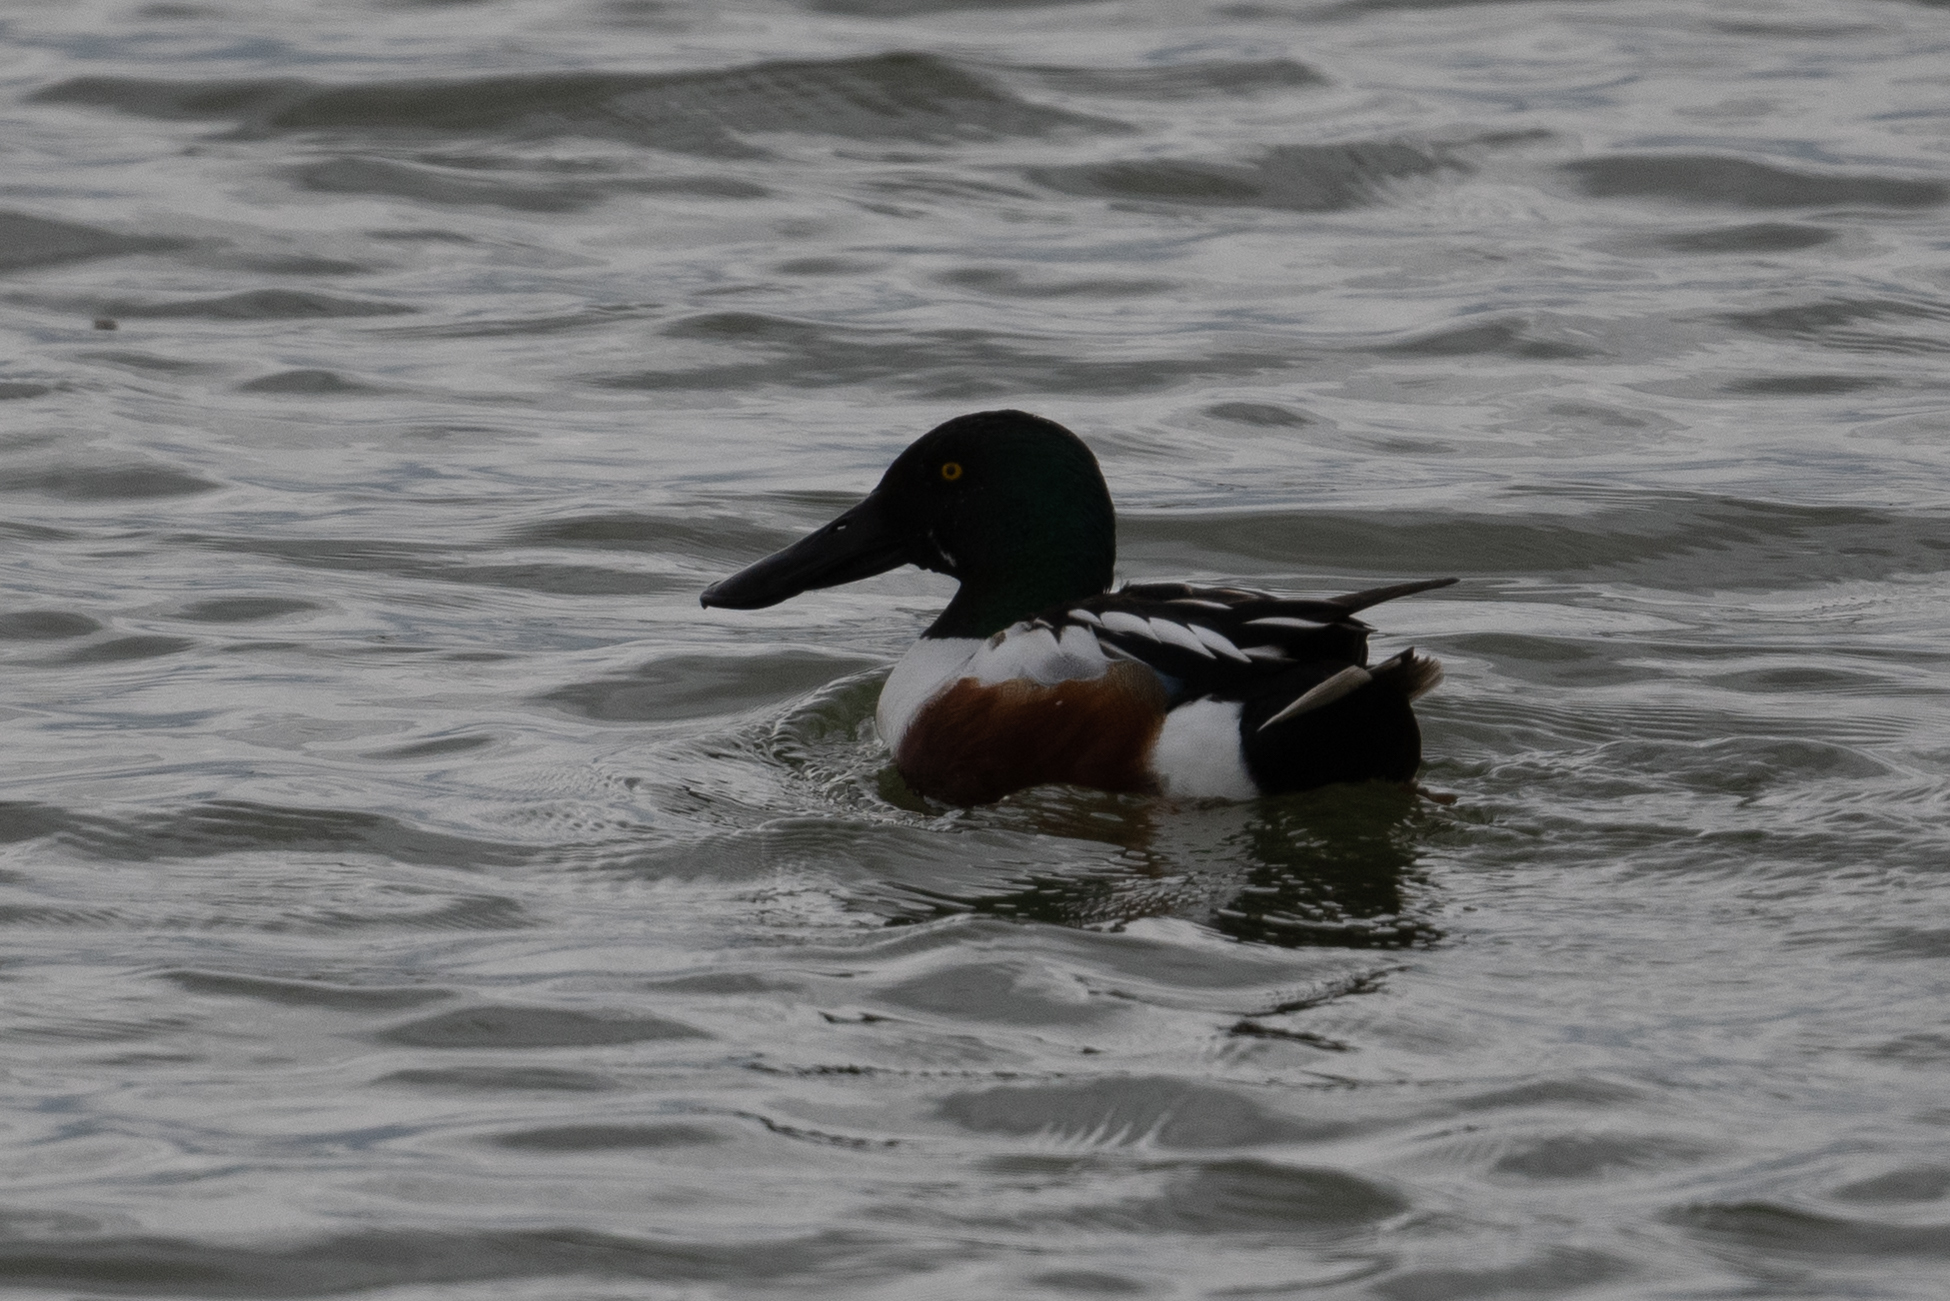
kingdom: Animalia
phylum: Chordata
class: Aves
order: Anseriformes
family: Anatidae
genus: Spatula
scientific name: Spatula clypeata
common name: Northern shoveler
